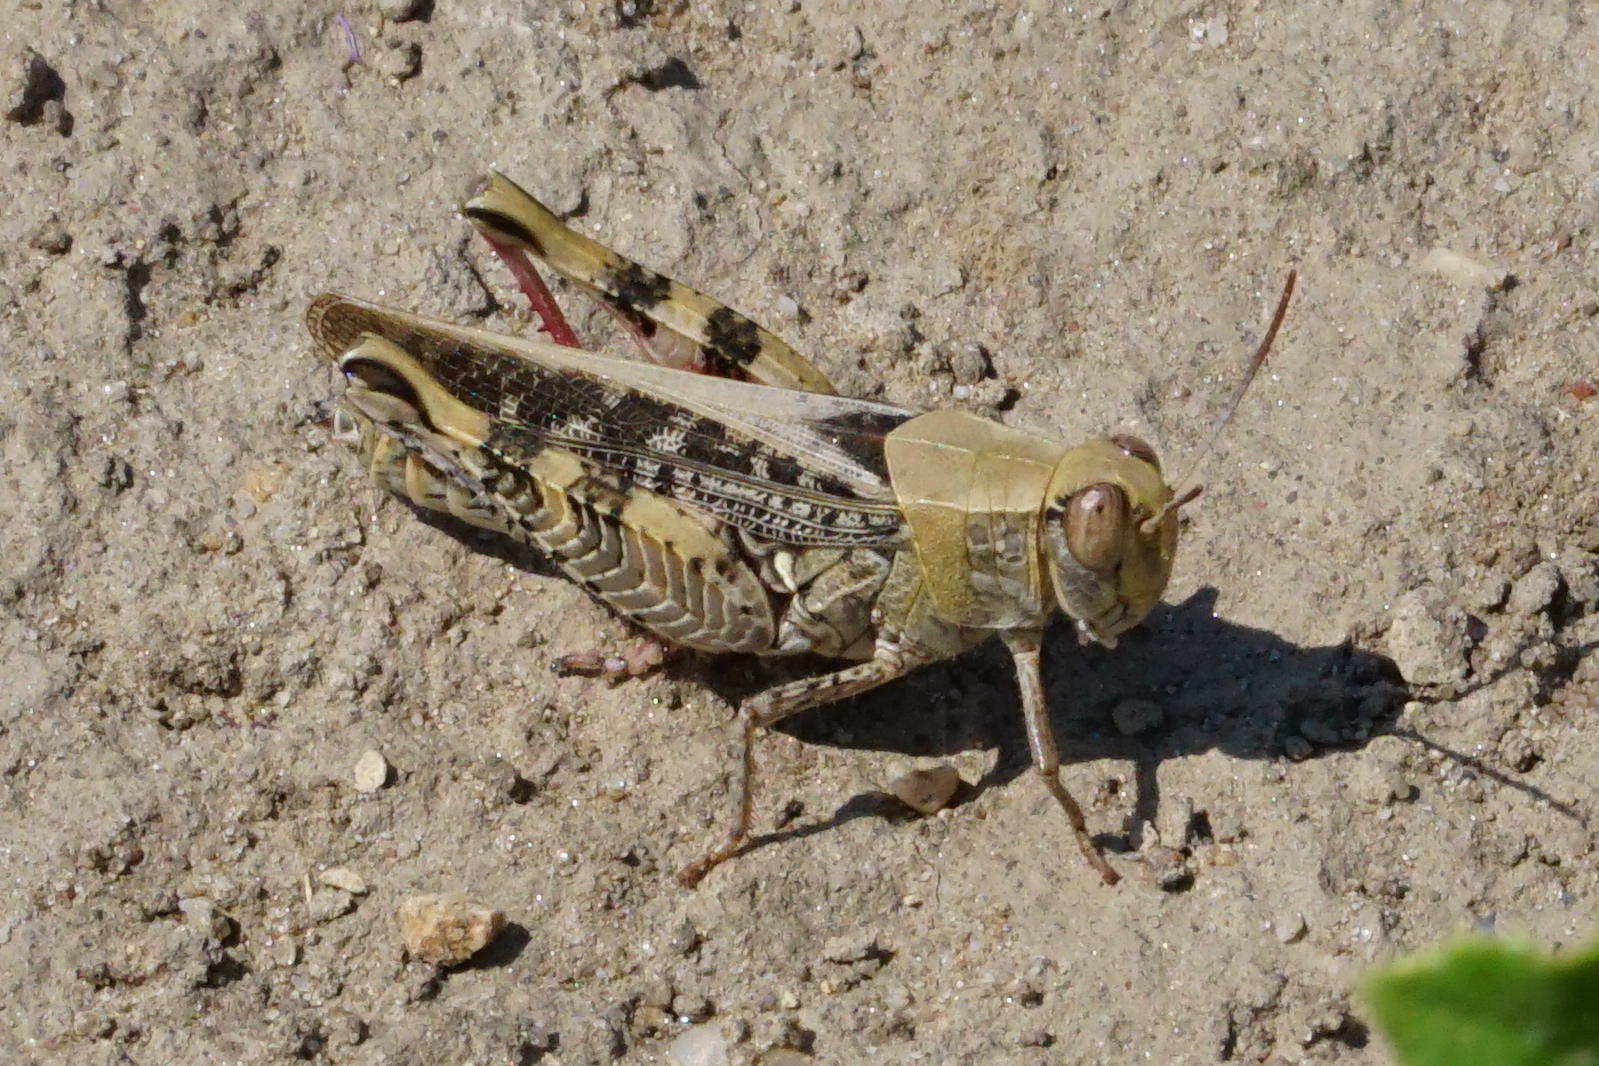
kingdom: Animalia
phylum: Arthropoda
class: Insecta
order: Orthoptera
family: Acrididae
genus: Calliptamus
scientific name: Calliptamus italicus
